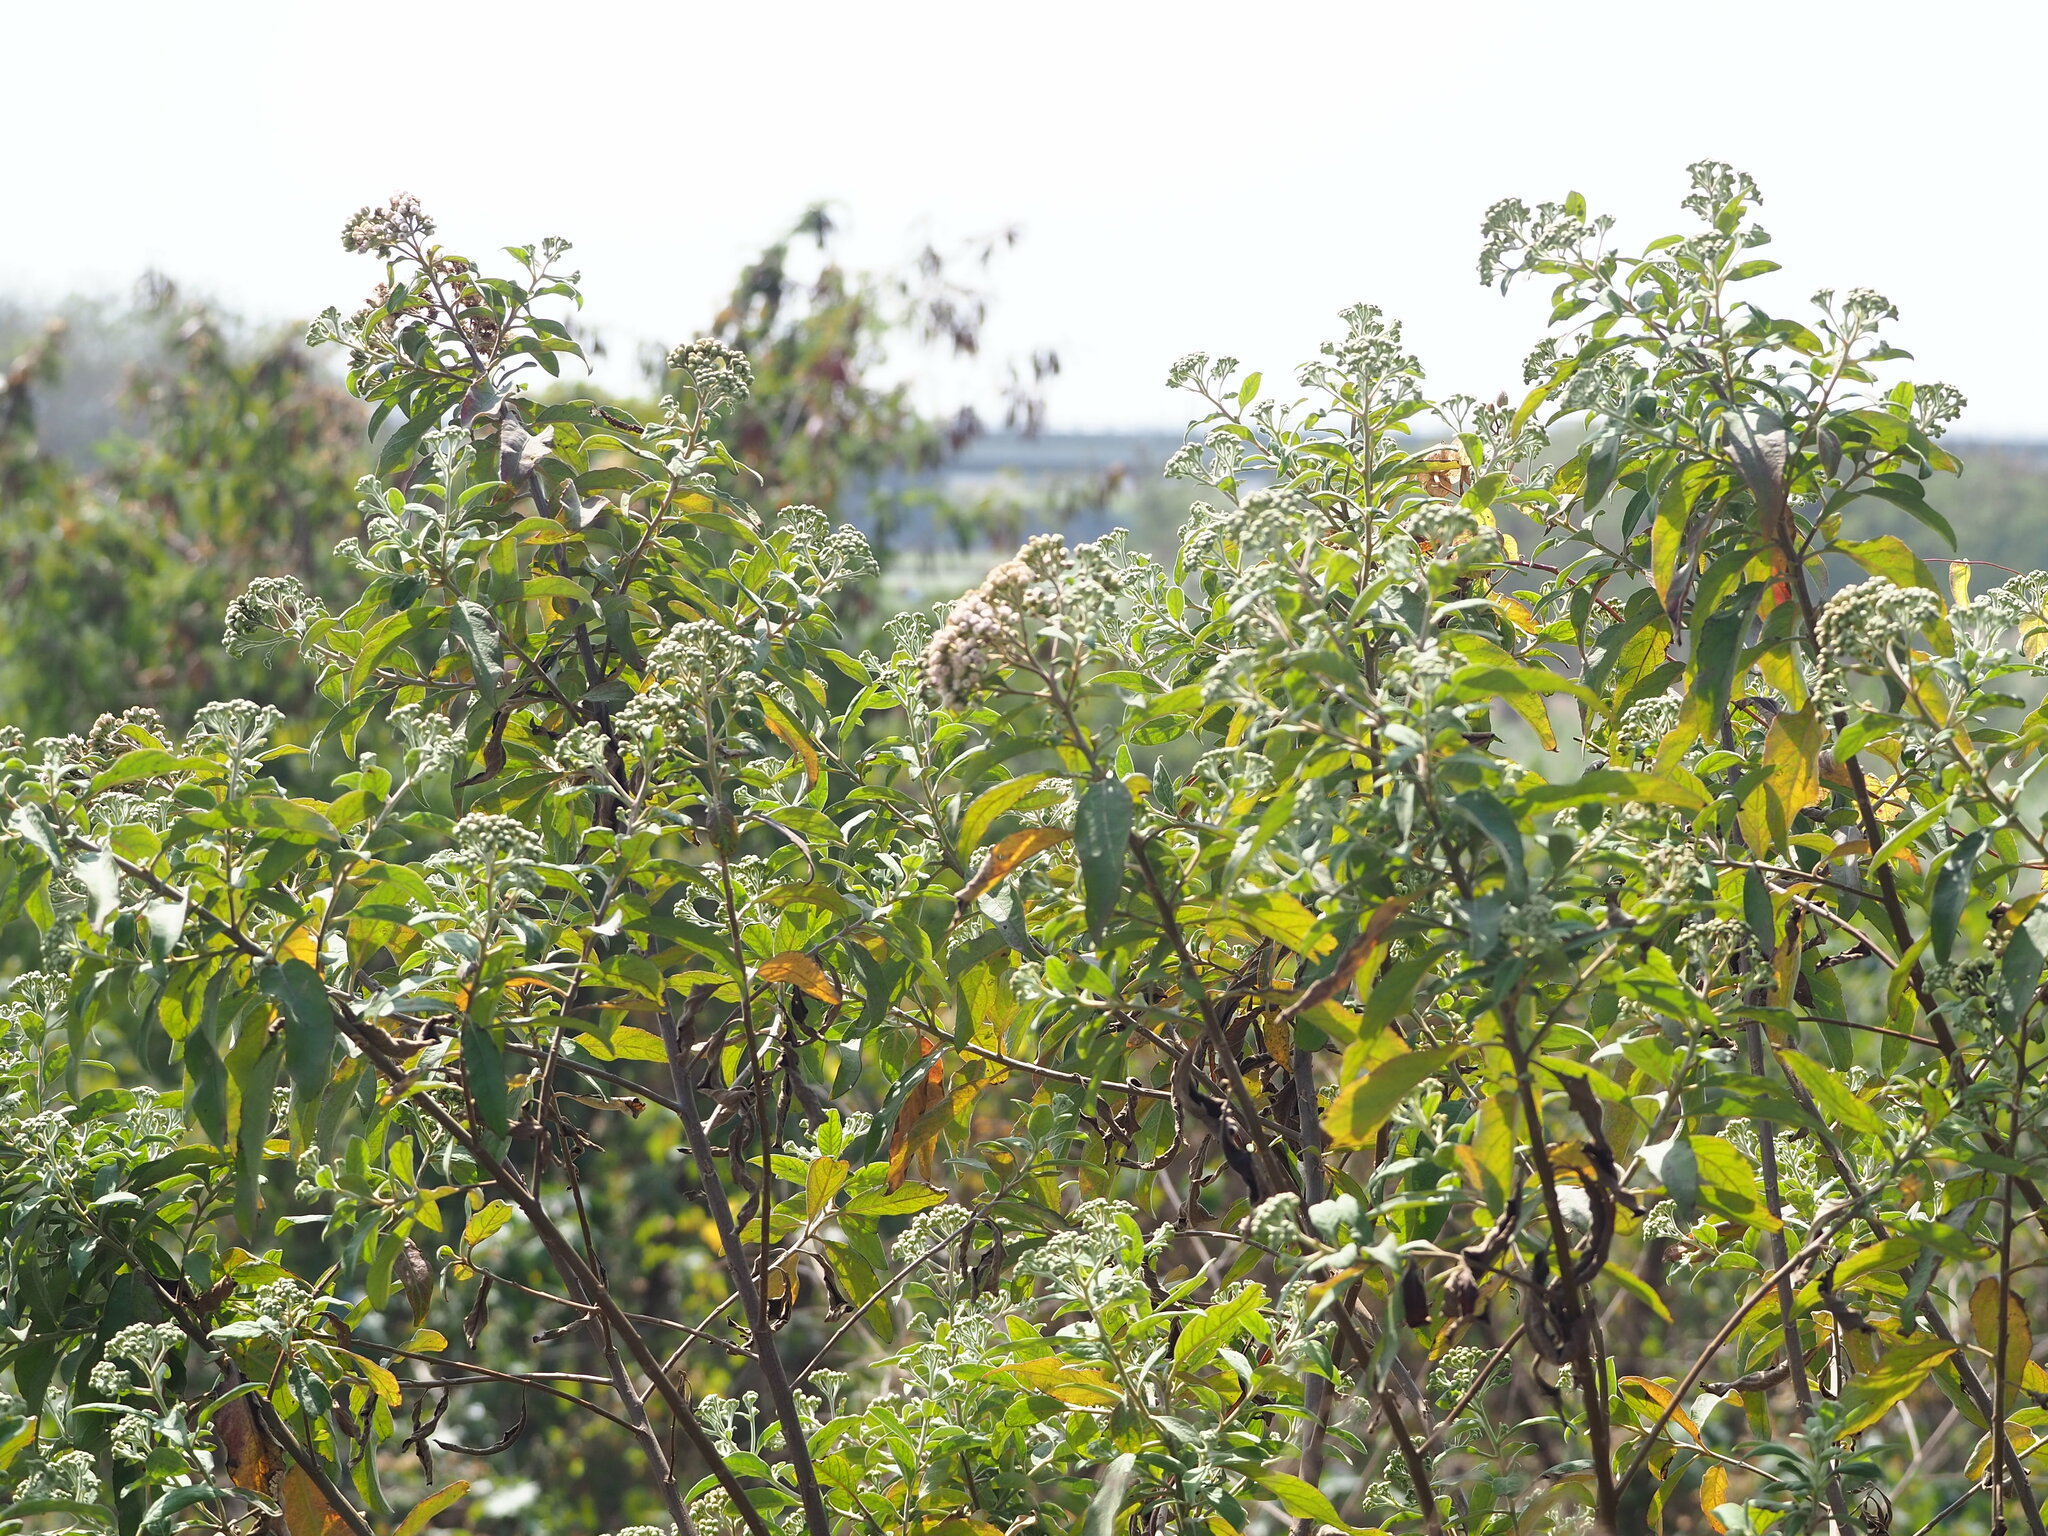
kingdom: Plantae
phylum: Tracheophyta
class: Magnoliopsida
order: Asterales
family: Asteraceae
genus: Pluchea
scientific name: Pluchea carolinensis
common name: Marsh fleabane
